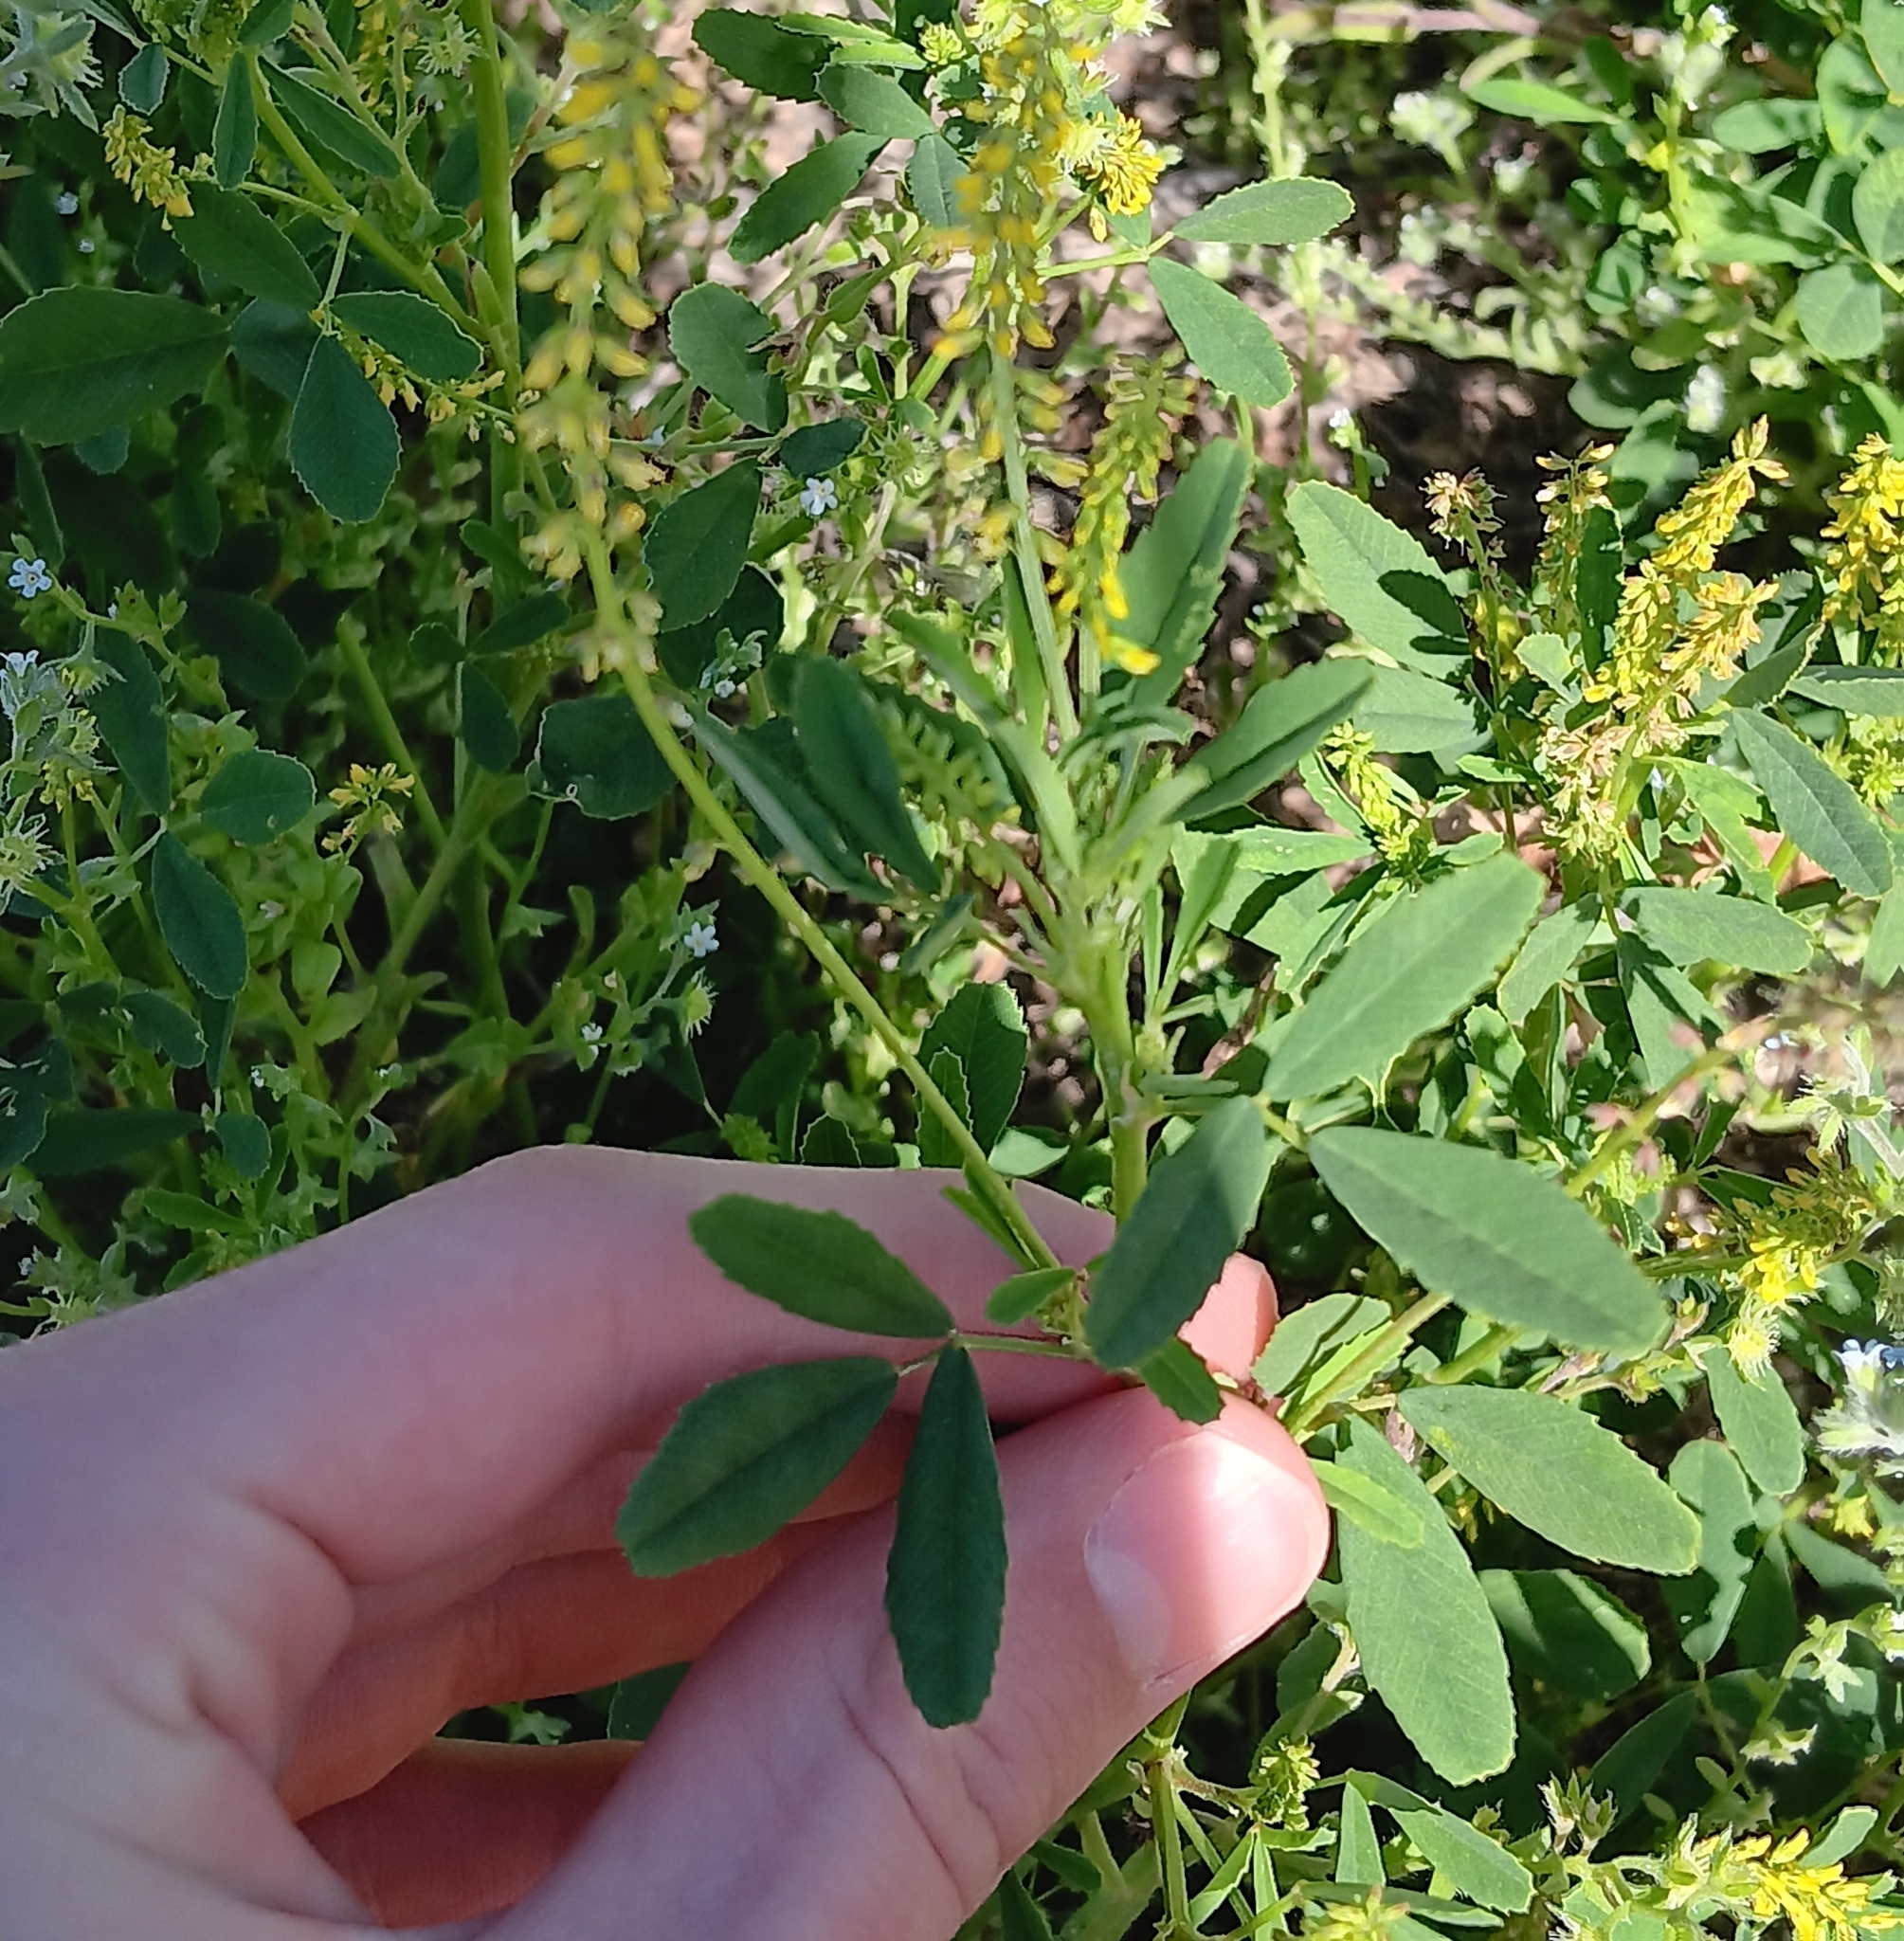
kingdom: Plantae
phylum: Tracheophyta
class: Magnoliopsida
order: Fabales
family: Fabaceae
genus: Melilotus
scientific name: Melilotus indicus
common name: Small melilot
